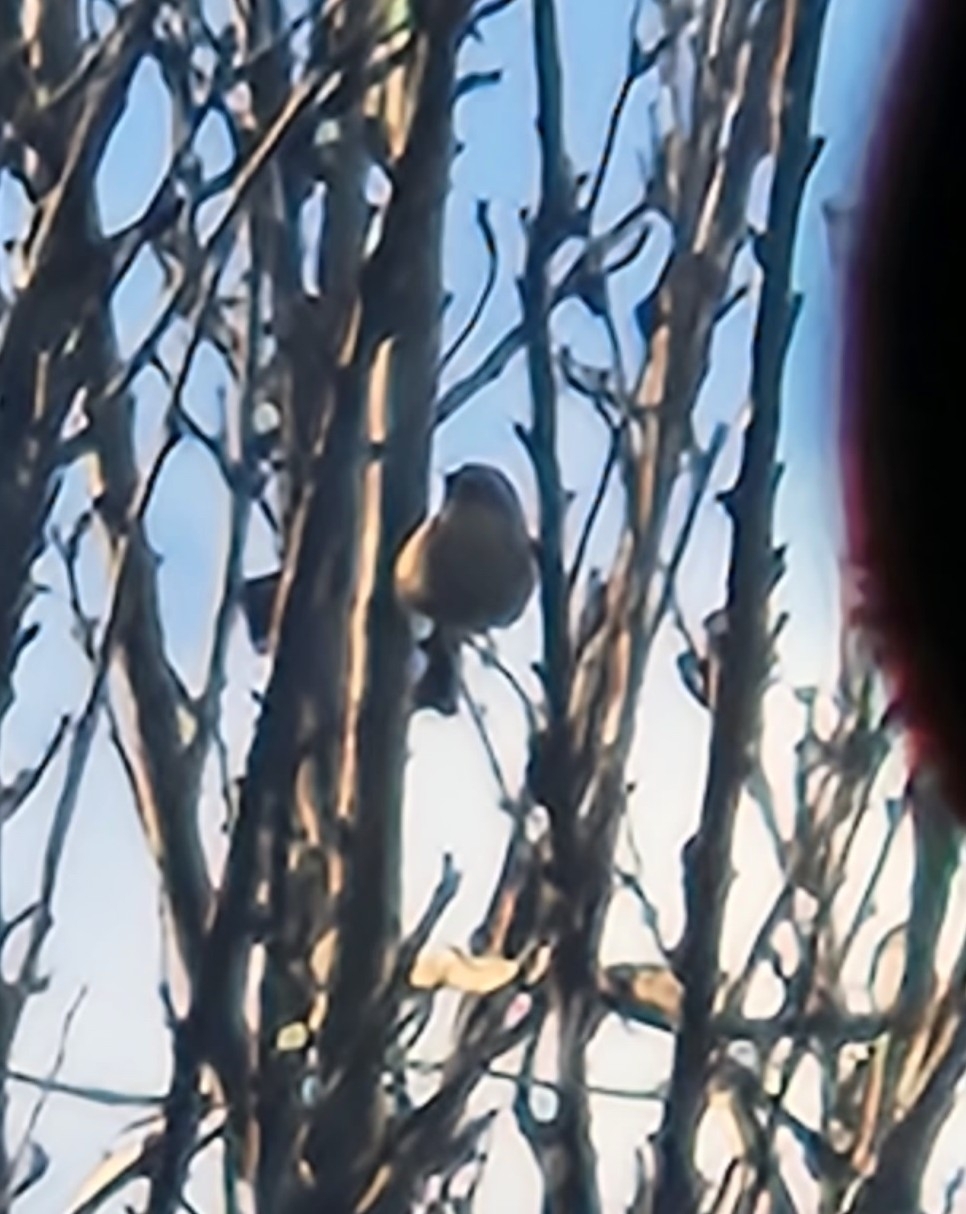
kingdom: Animalia
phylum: Chordata
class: Aves
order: Passeriformes
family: Aegithalidae
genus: Psaltriparus
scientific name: Psaltriparus minimus
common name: American bushtit
